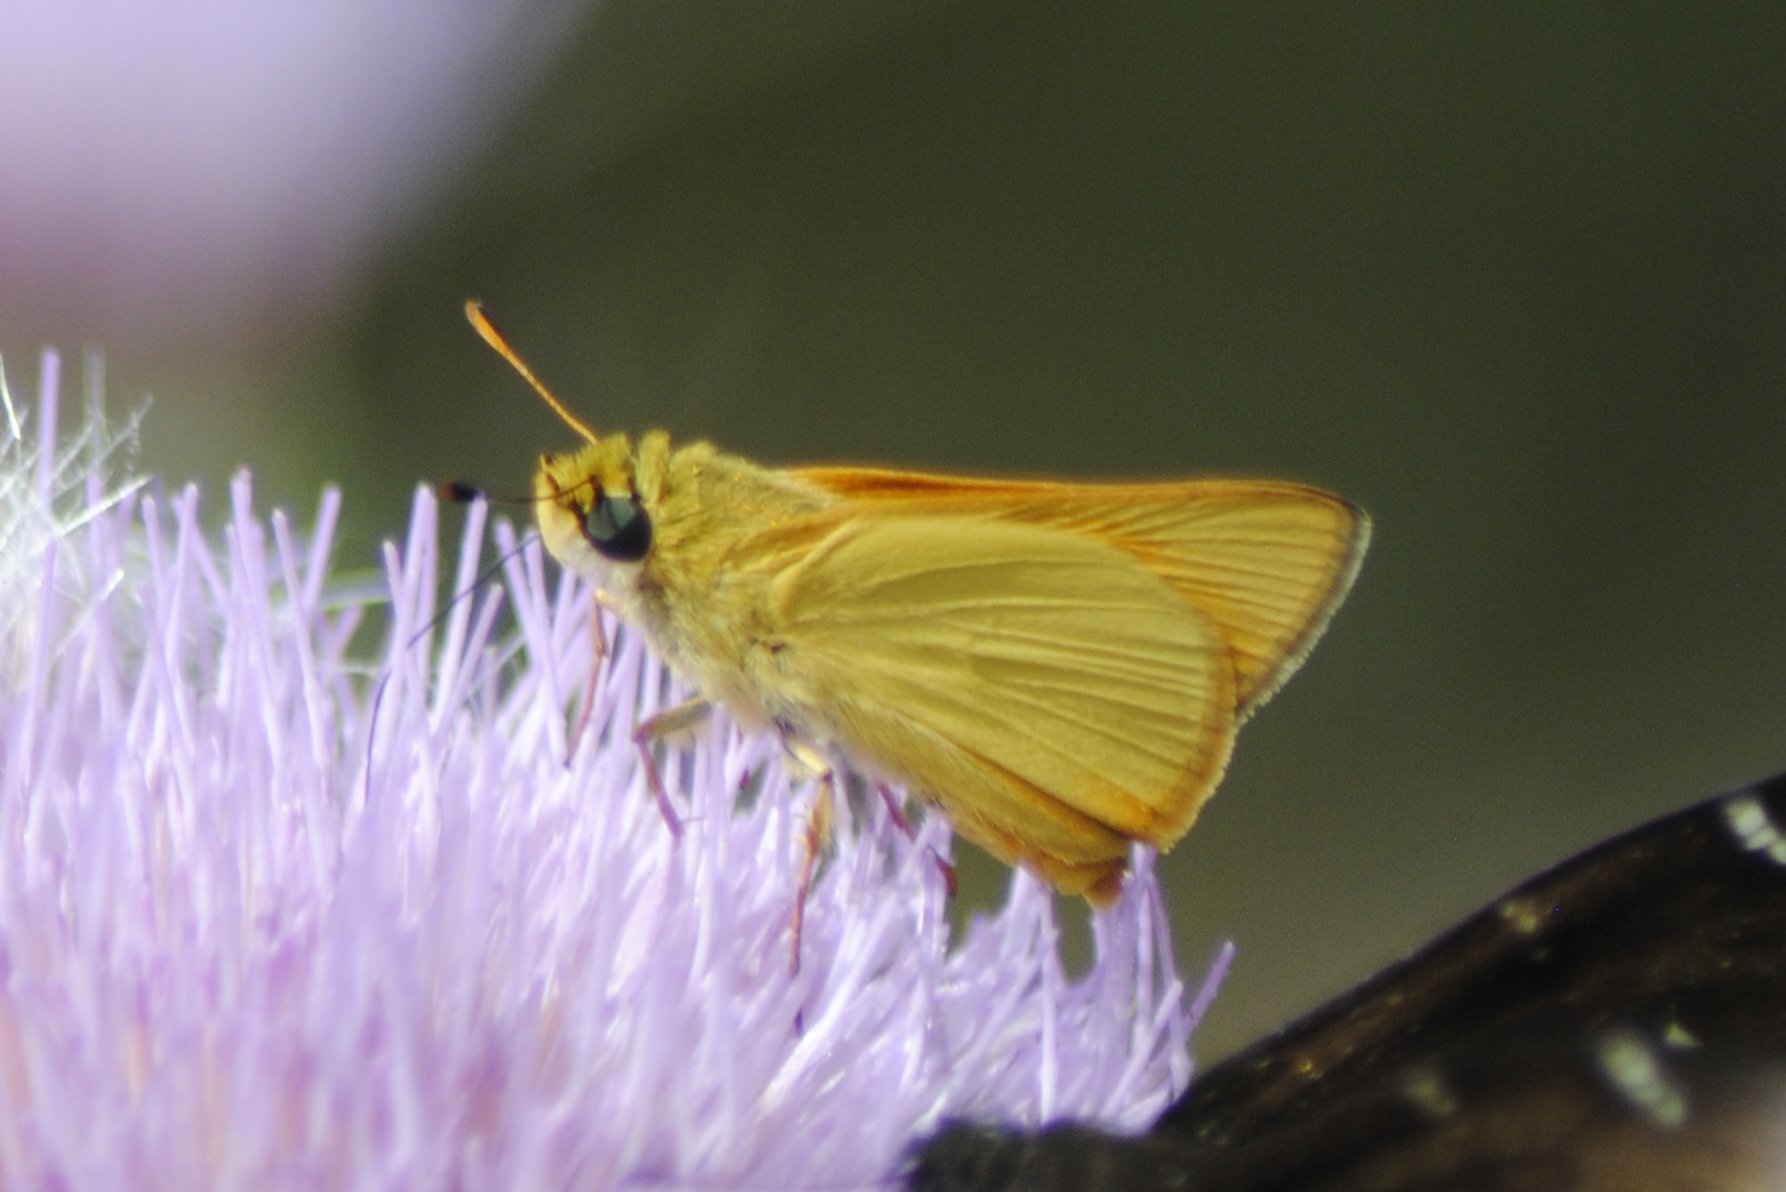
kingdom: Animalia
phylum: Arthropoda
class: Insecta
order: Lepidoptera
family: Hesperiidae
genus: Atrytone
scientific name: Atrytone delaware
